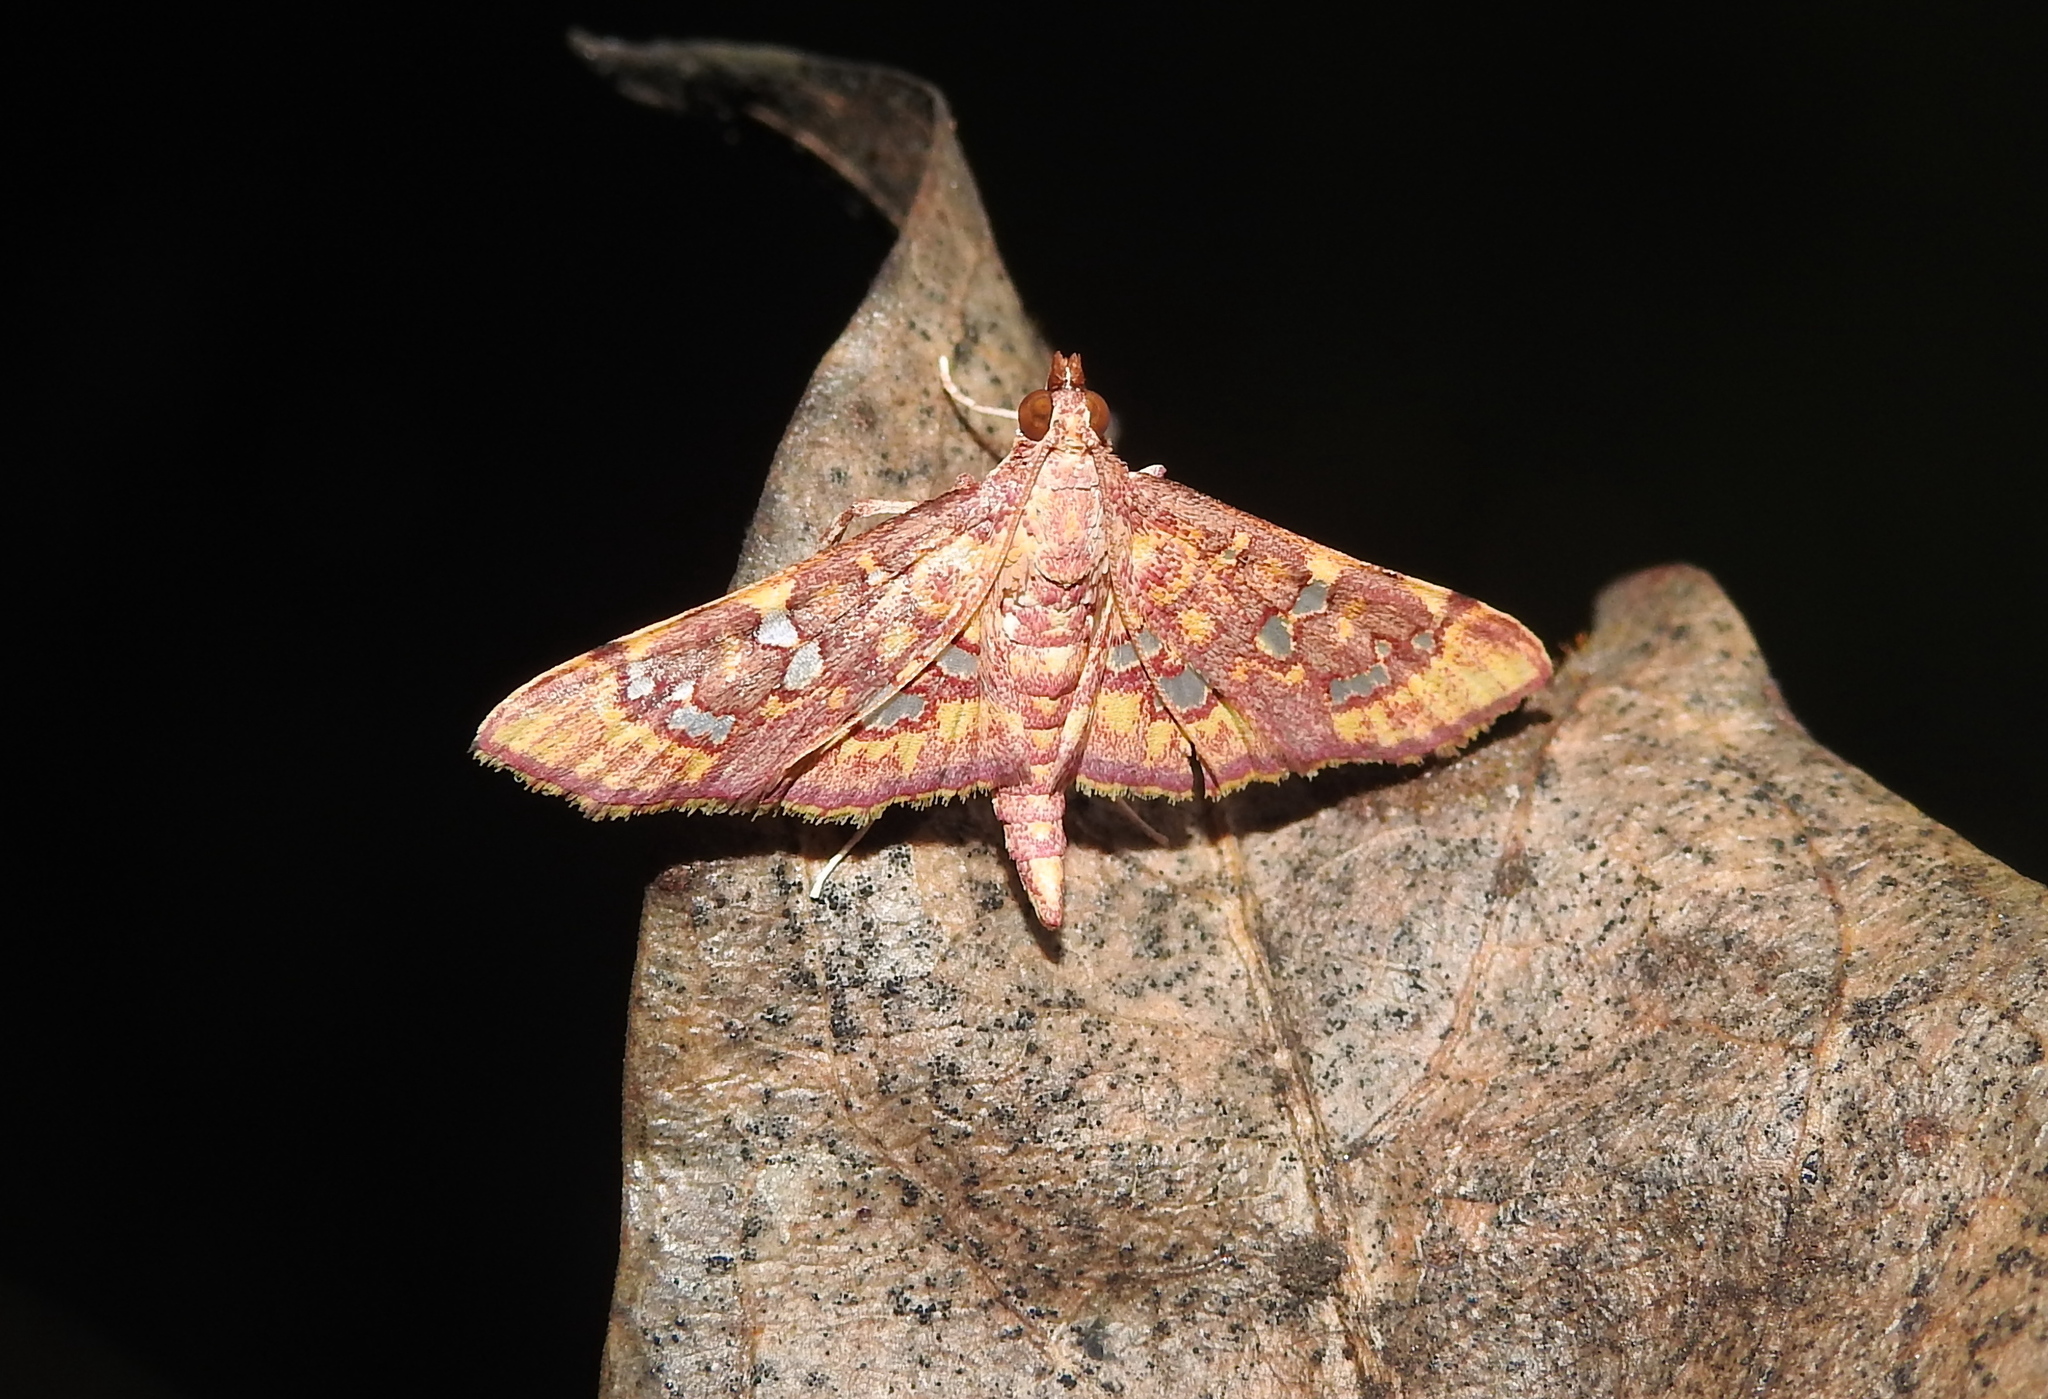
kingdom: Animalia
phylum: Arthropoda
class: Insecta
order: Lepidoptera
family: Crambidae
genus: Ischnurges
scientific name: Ischnurges gratiosalis
